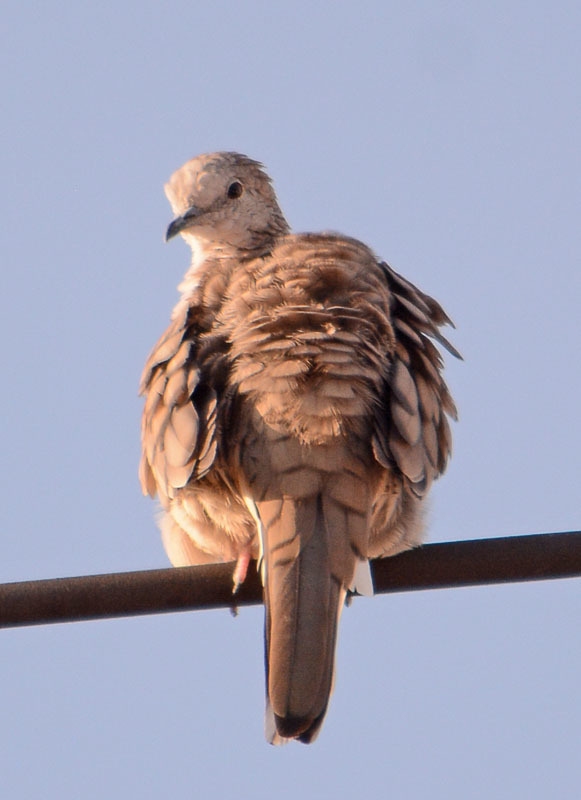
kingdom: Animalia
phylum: Chordata
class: Aves
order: Columbiformes
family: Columbidae
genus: Columbina
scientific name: Columbina inca
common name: Inca dove
